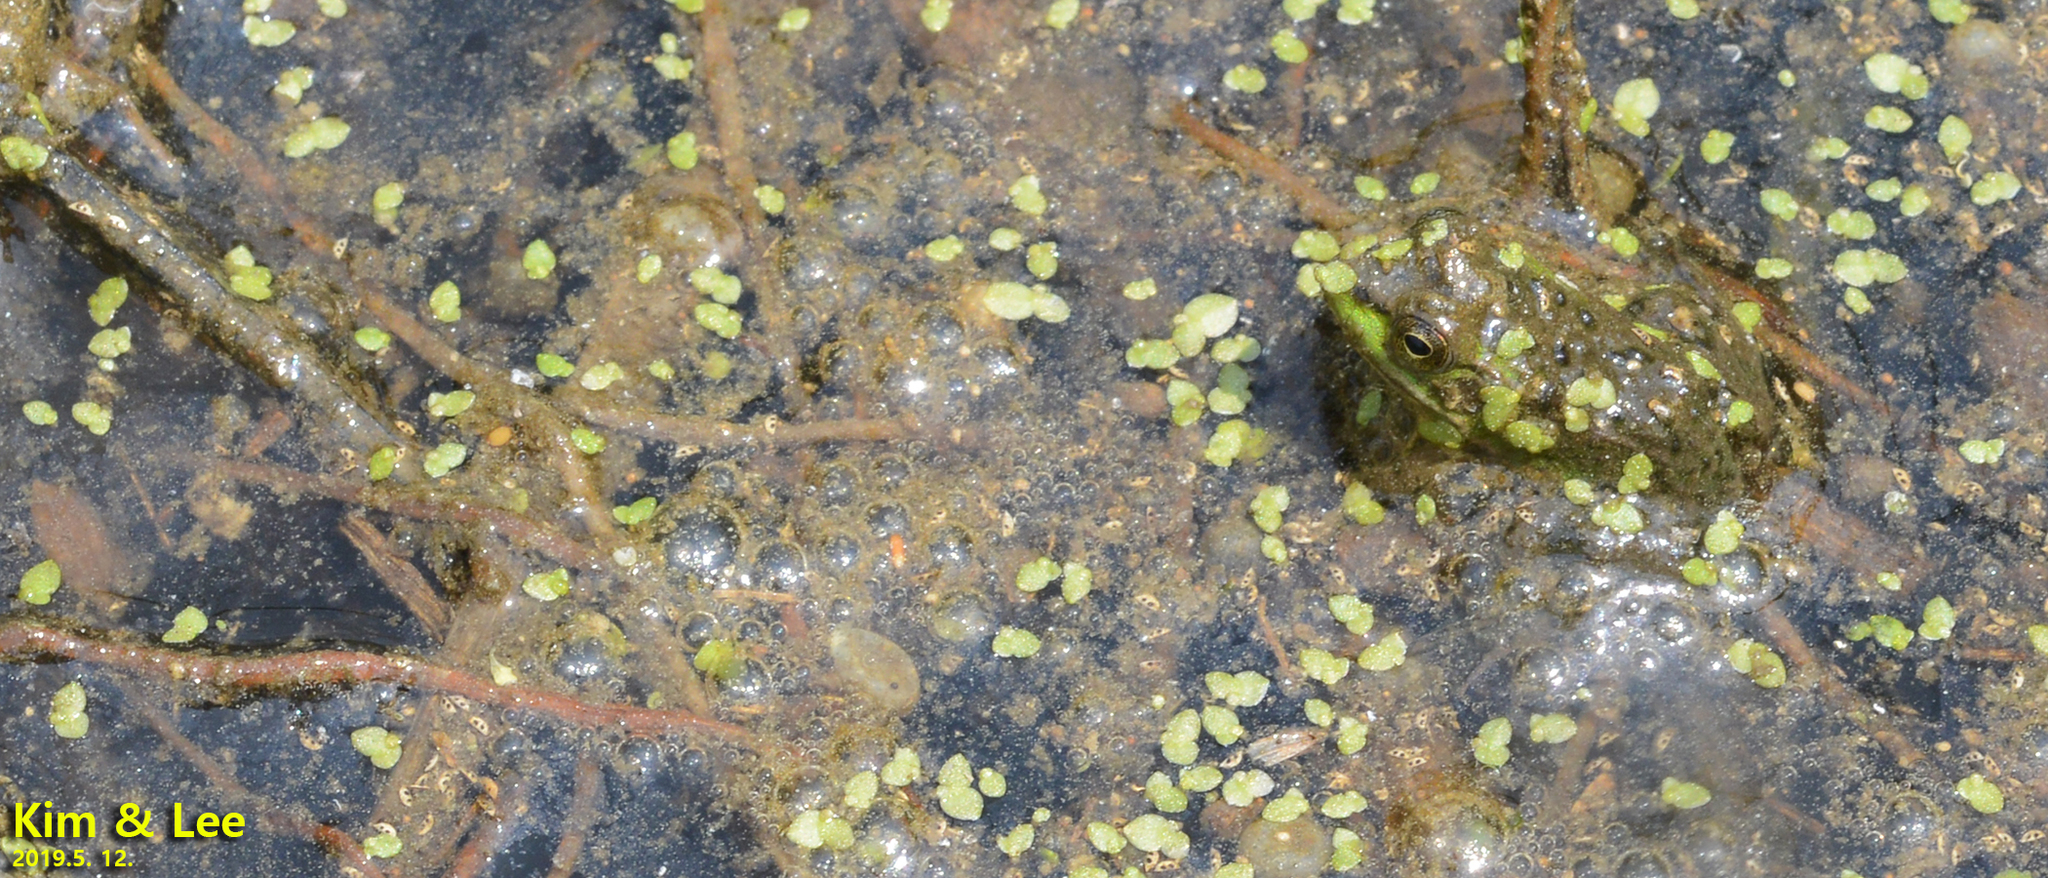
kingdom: Animalia
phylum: Chordata
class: Amphibia
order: Anura
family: Ranidae
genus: Pelophylax
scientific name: Pelophylax chosenicus
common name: Gold-spotted pond frog
